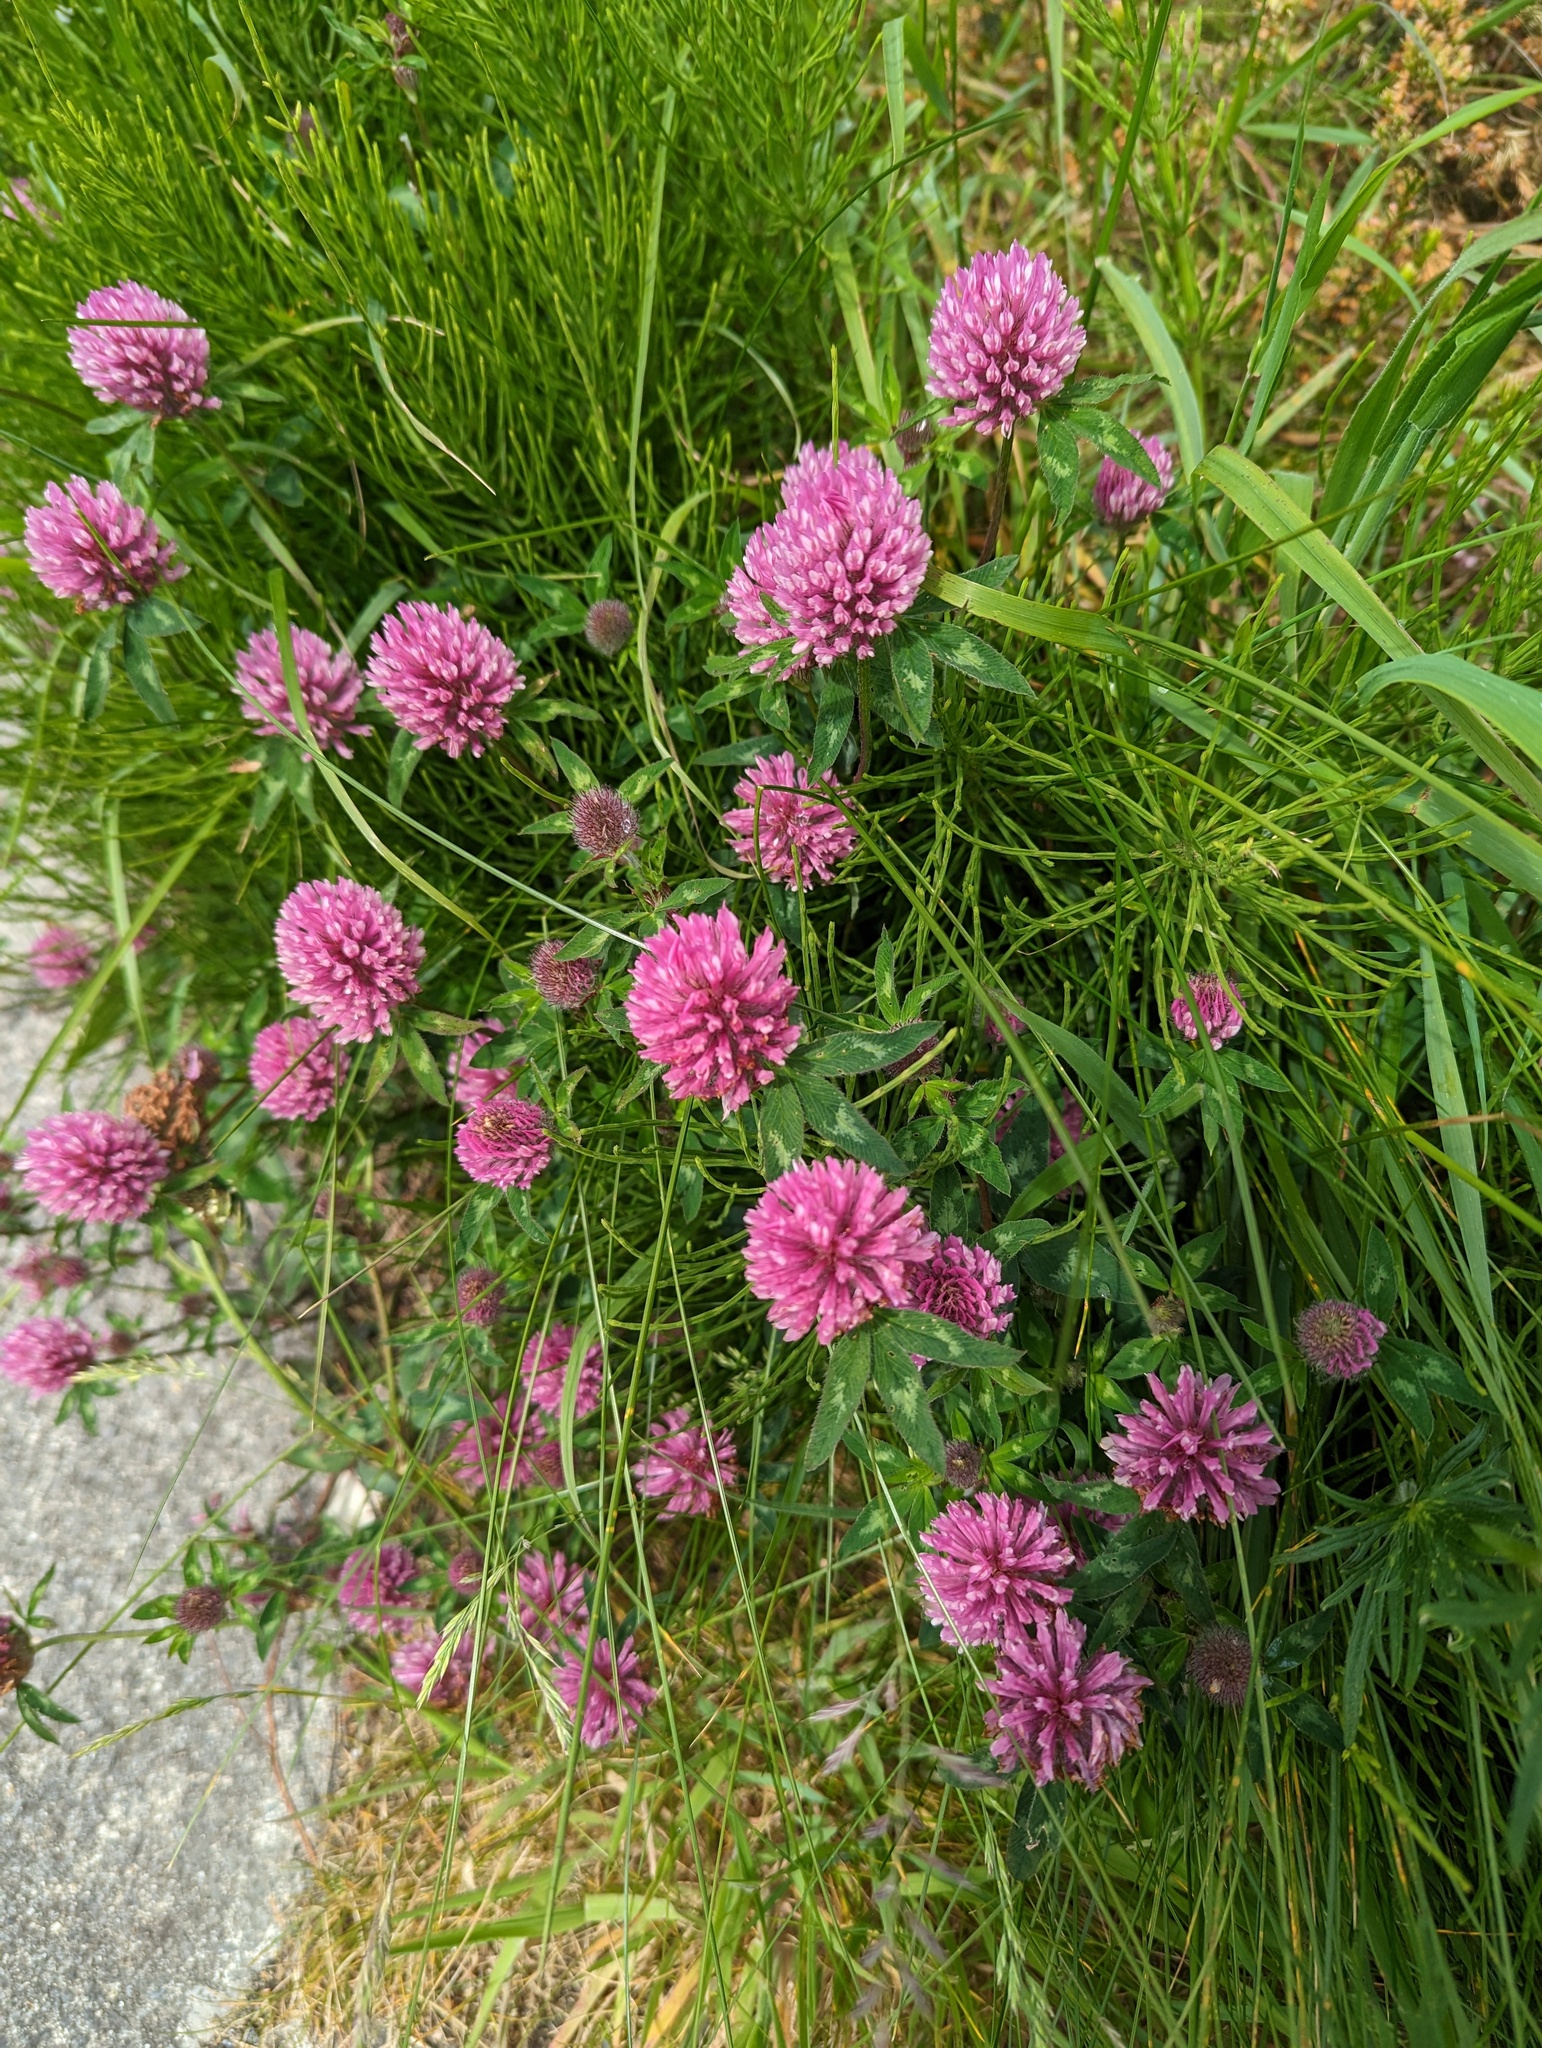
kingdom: Plantae
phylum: Tracheophyta
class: Magnoliopsida
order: Fabales
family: Fabaceae
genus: Trifolium
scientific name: Trifolium pratense
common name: Red clover
